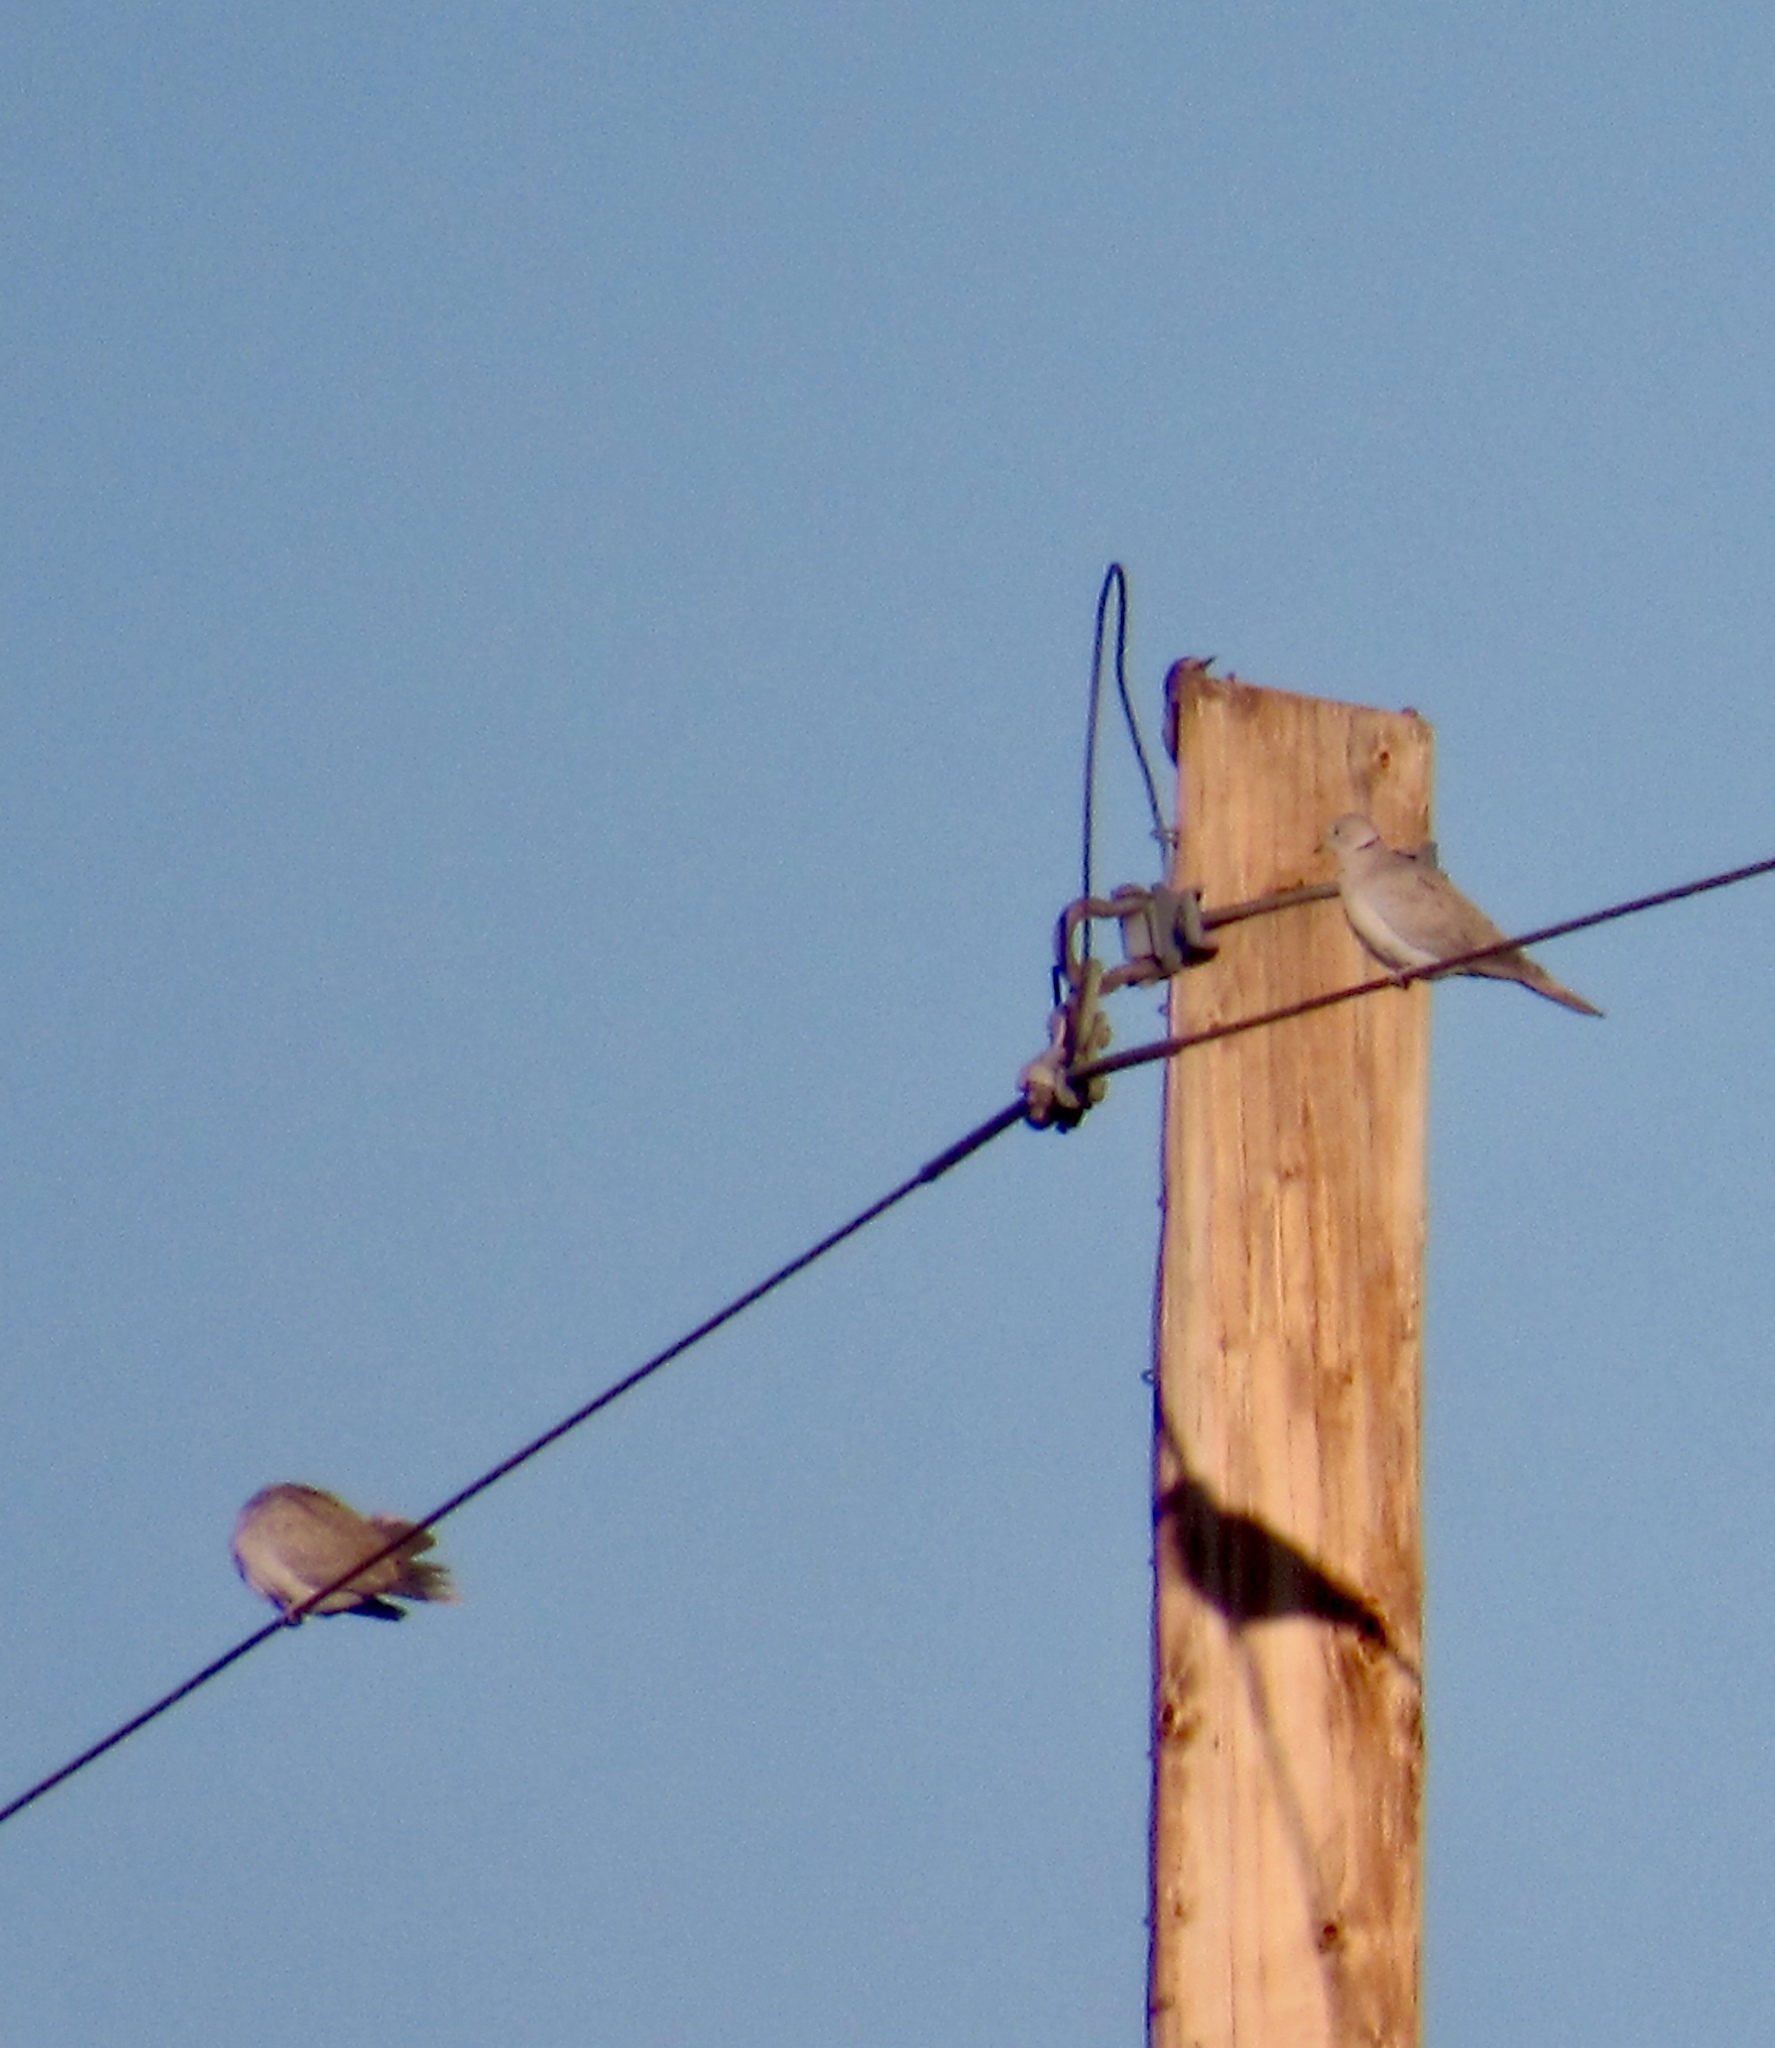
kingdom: Animalia
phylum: Chordata
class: Aves
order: Columbiformes
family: Columbidae
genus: Streptopelia
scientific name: Streptopelia decaocto
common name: Eurasian collared dove
